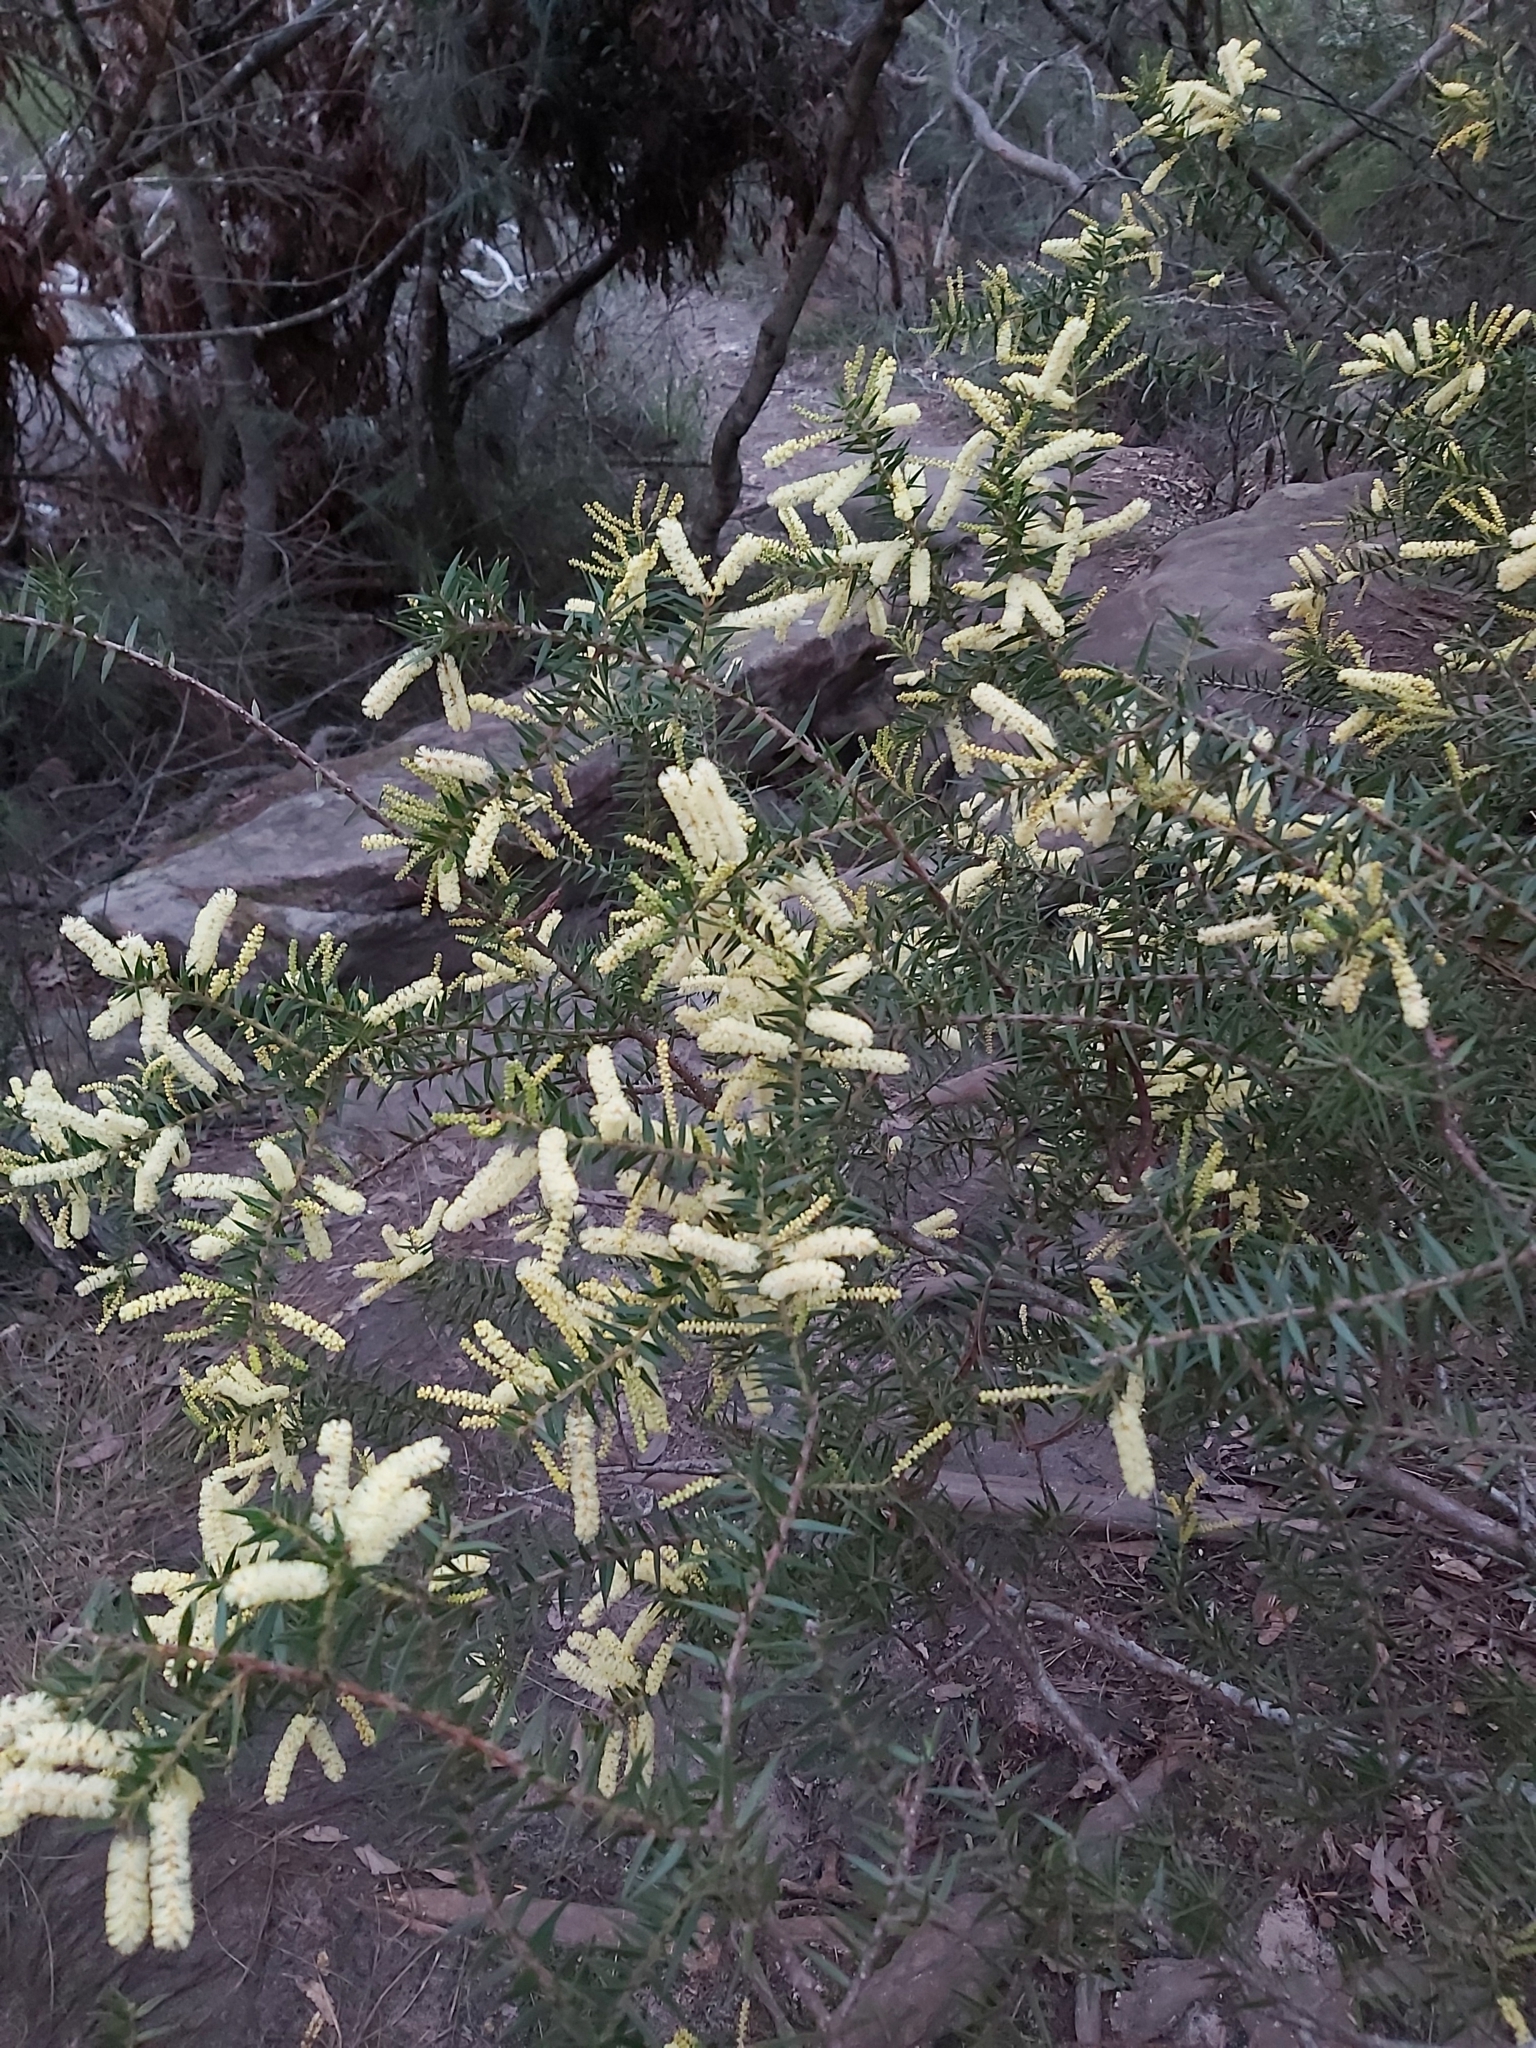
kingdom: Plantae
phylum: Tracheophyta
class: Magnoliopsida
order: Fabales
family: Fabaceae
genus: Acacia
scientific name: Acacia oxycedrus
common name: Spike wattle
